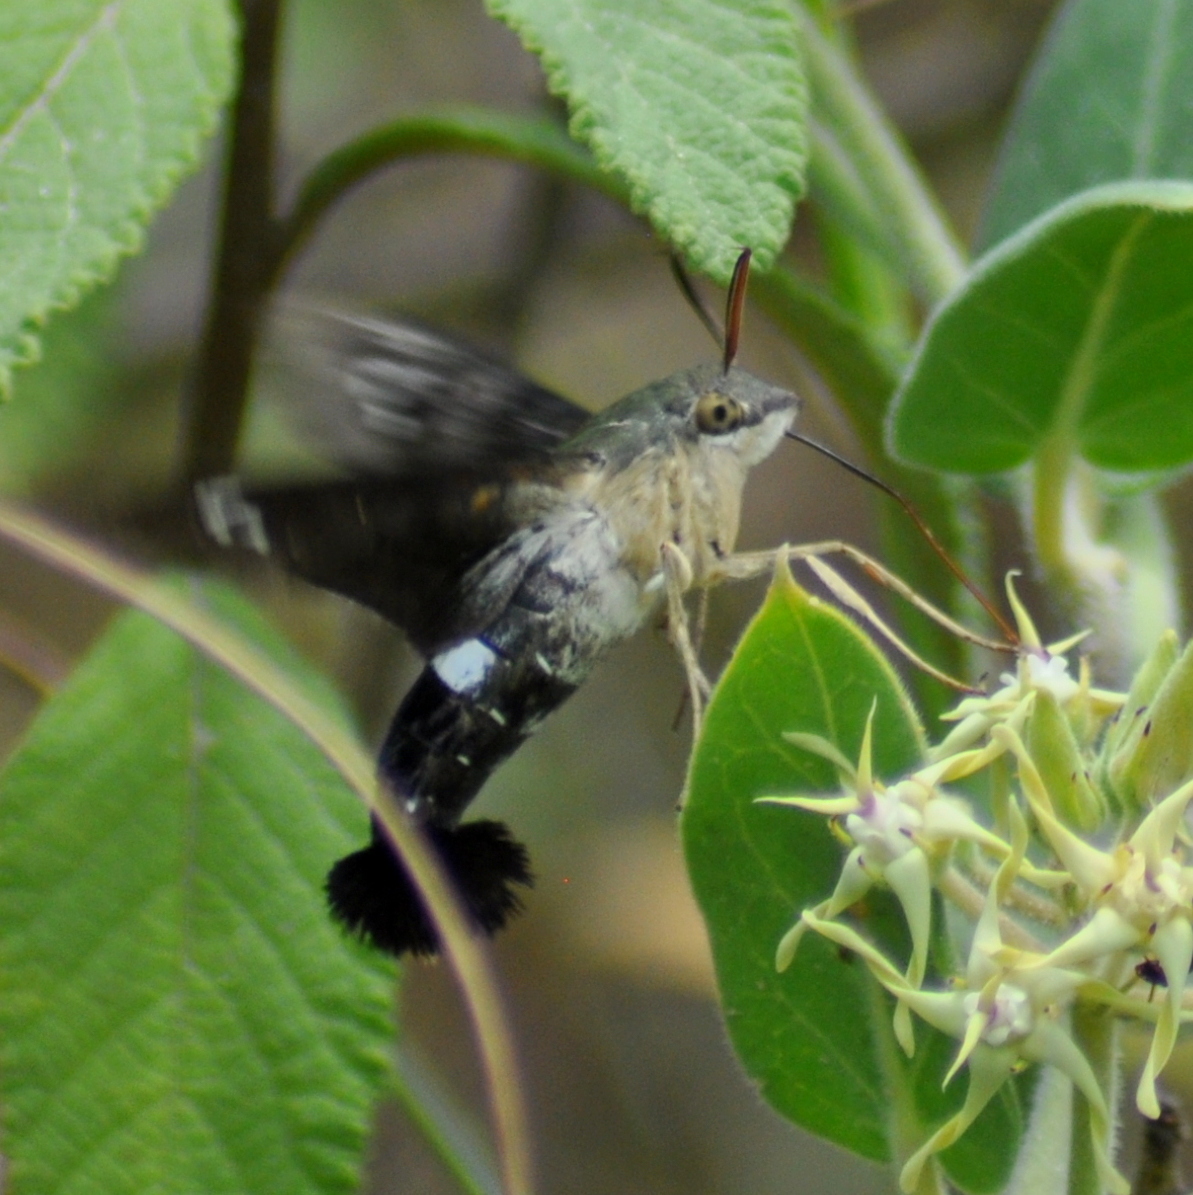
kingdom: Animalia
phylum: Arthropoda
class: Insecta
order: Lepidoptera
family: Sphingidae
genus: Aellopos
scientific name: Aellopos clavipes
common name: Clavipes sphinx
